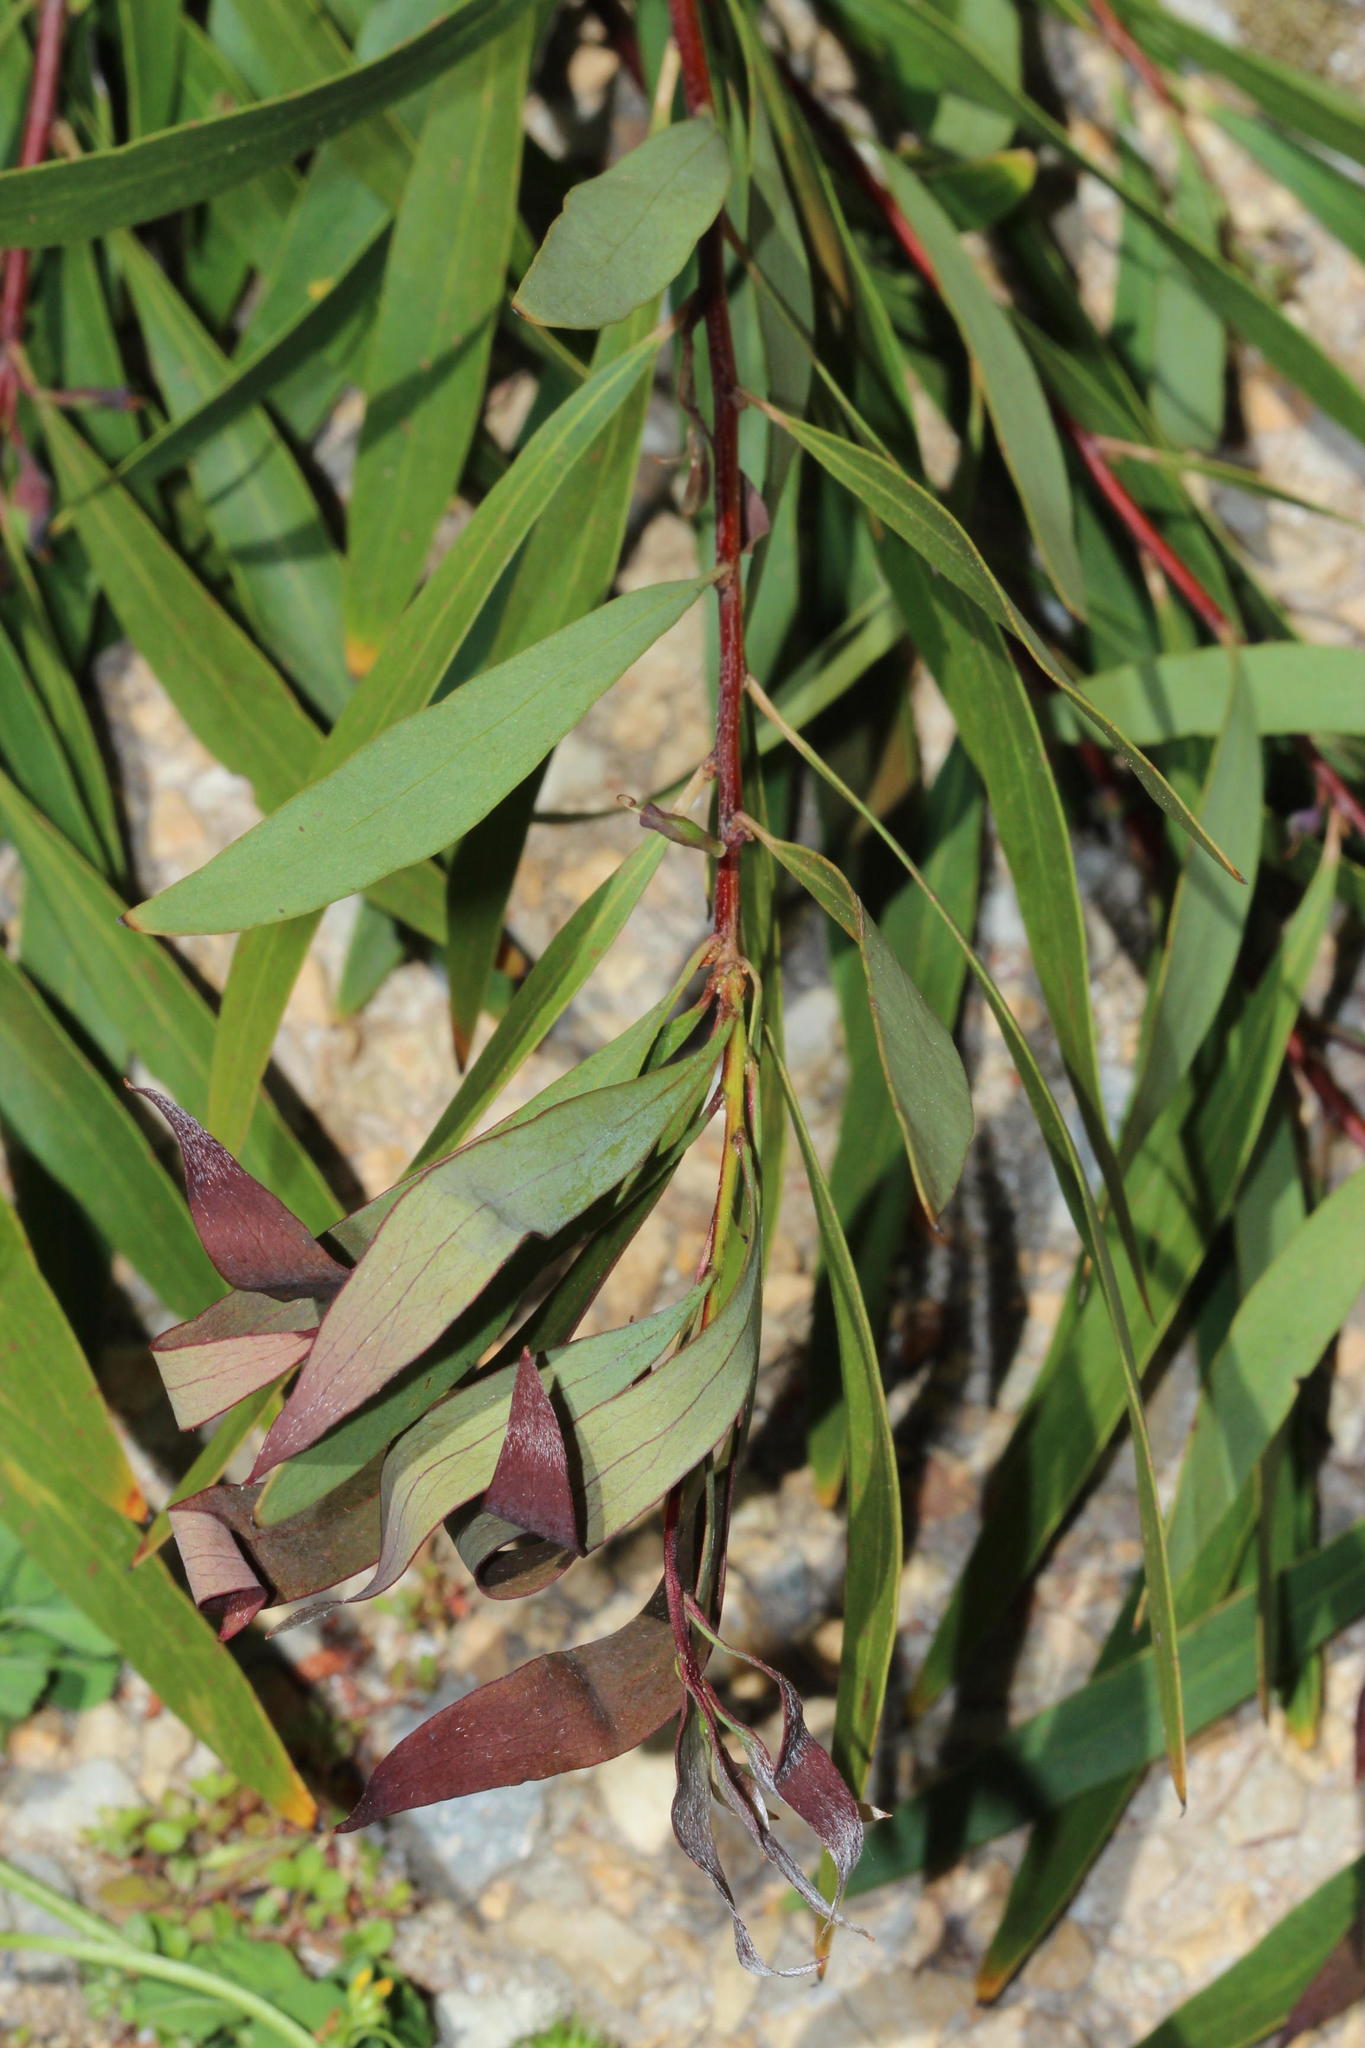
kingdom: Plantae
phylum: Tracheophyta
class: Magnoliopsida
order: Proteales
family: Proteaceae
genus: Hakea
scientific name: Hakea salicifolia
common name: Willow hakea
